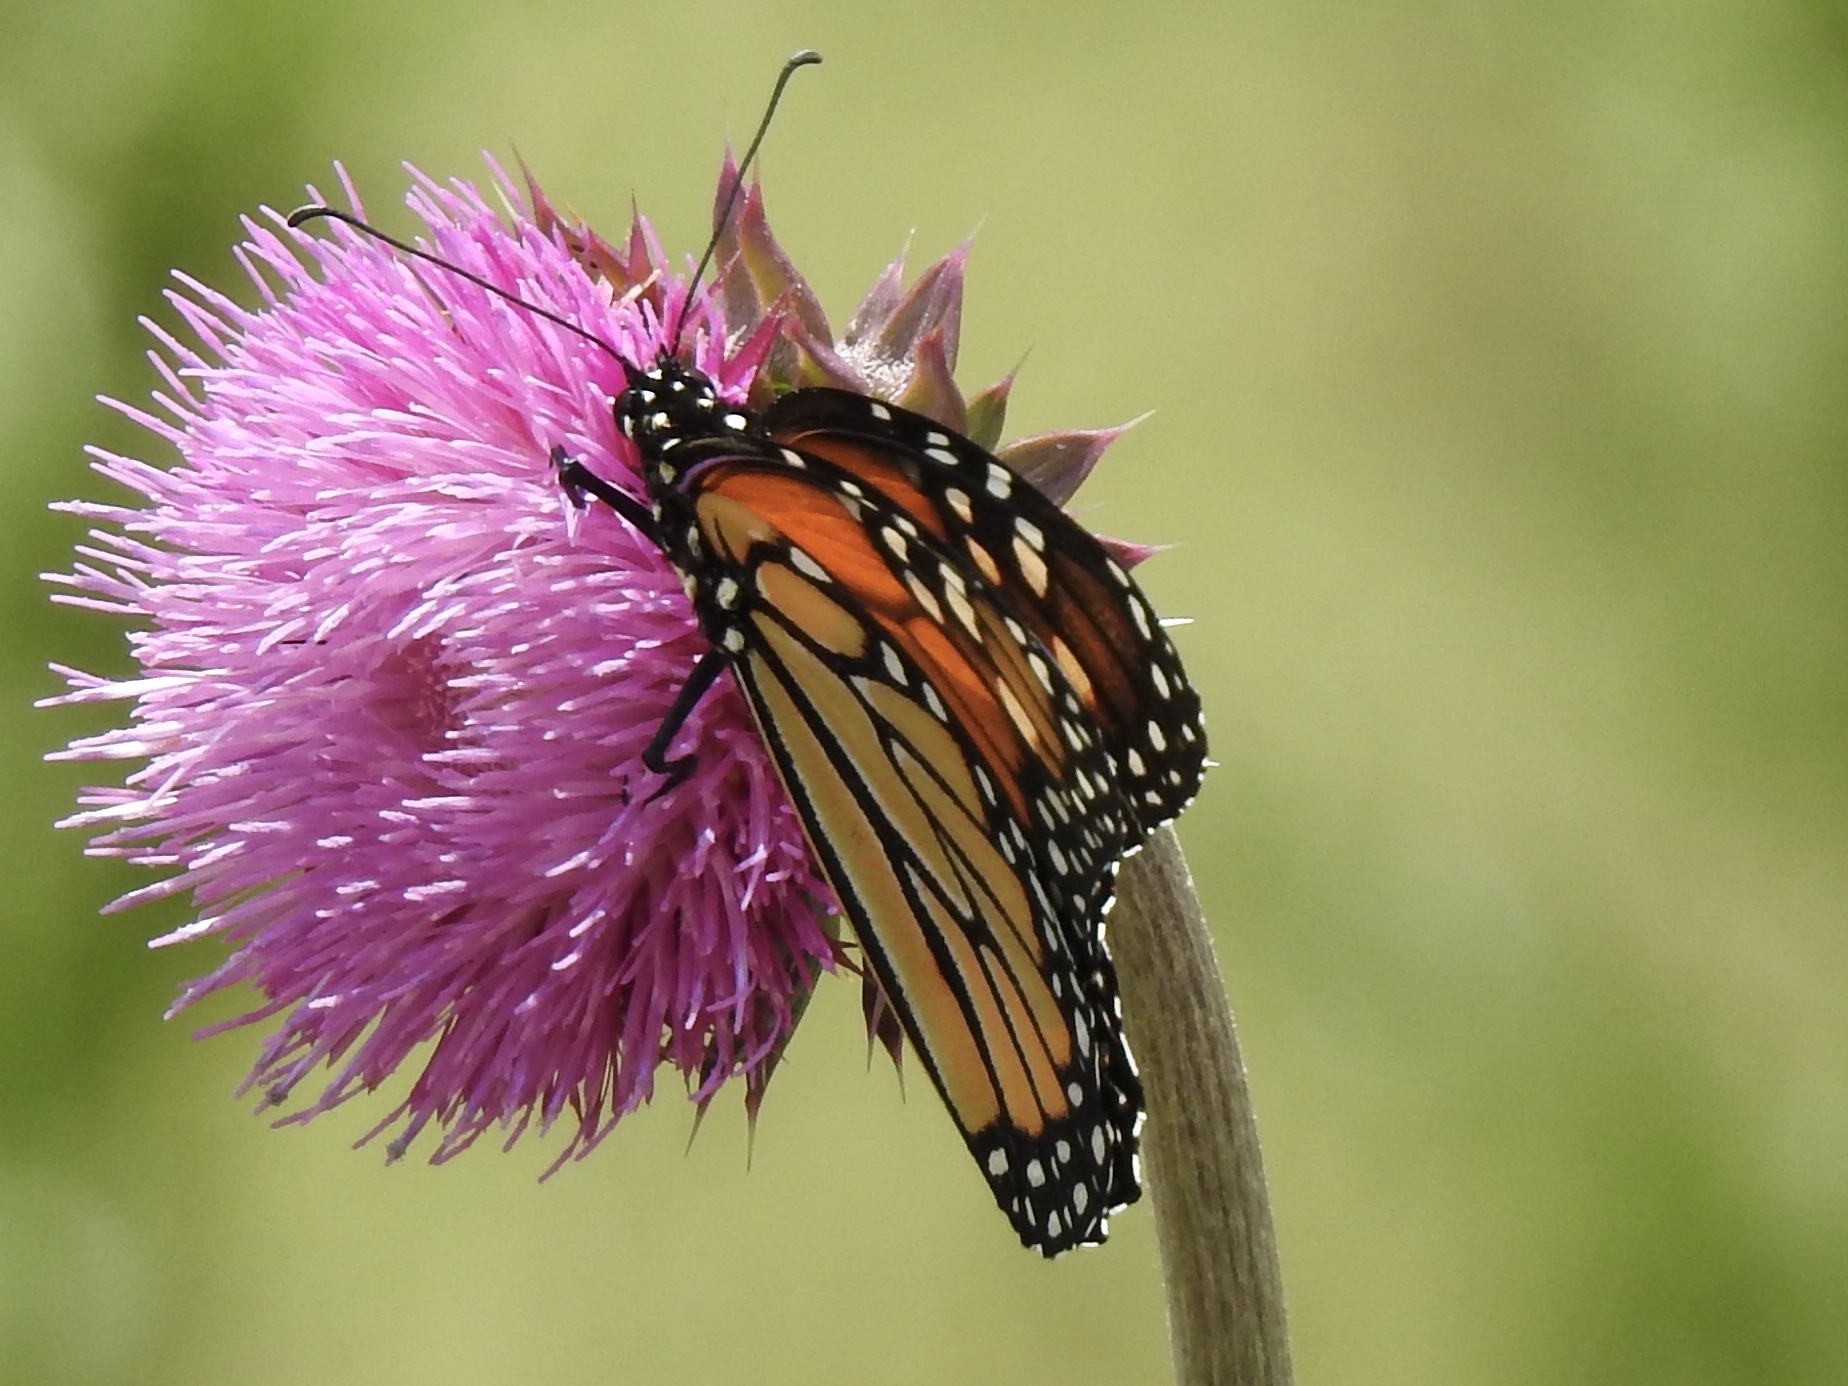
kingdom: Animalia
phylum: Arthropoda
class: Insecta
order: Lepidoptera
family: Nymphalidae
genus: Danaus
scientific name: Danaus plexippus
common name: Monarch
